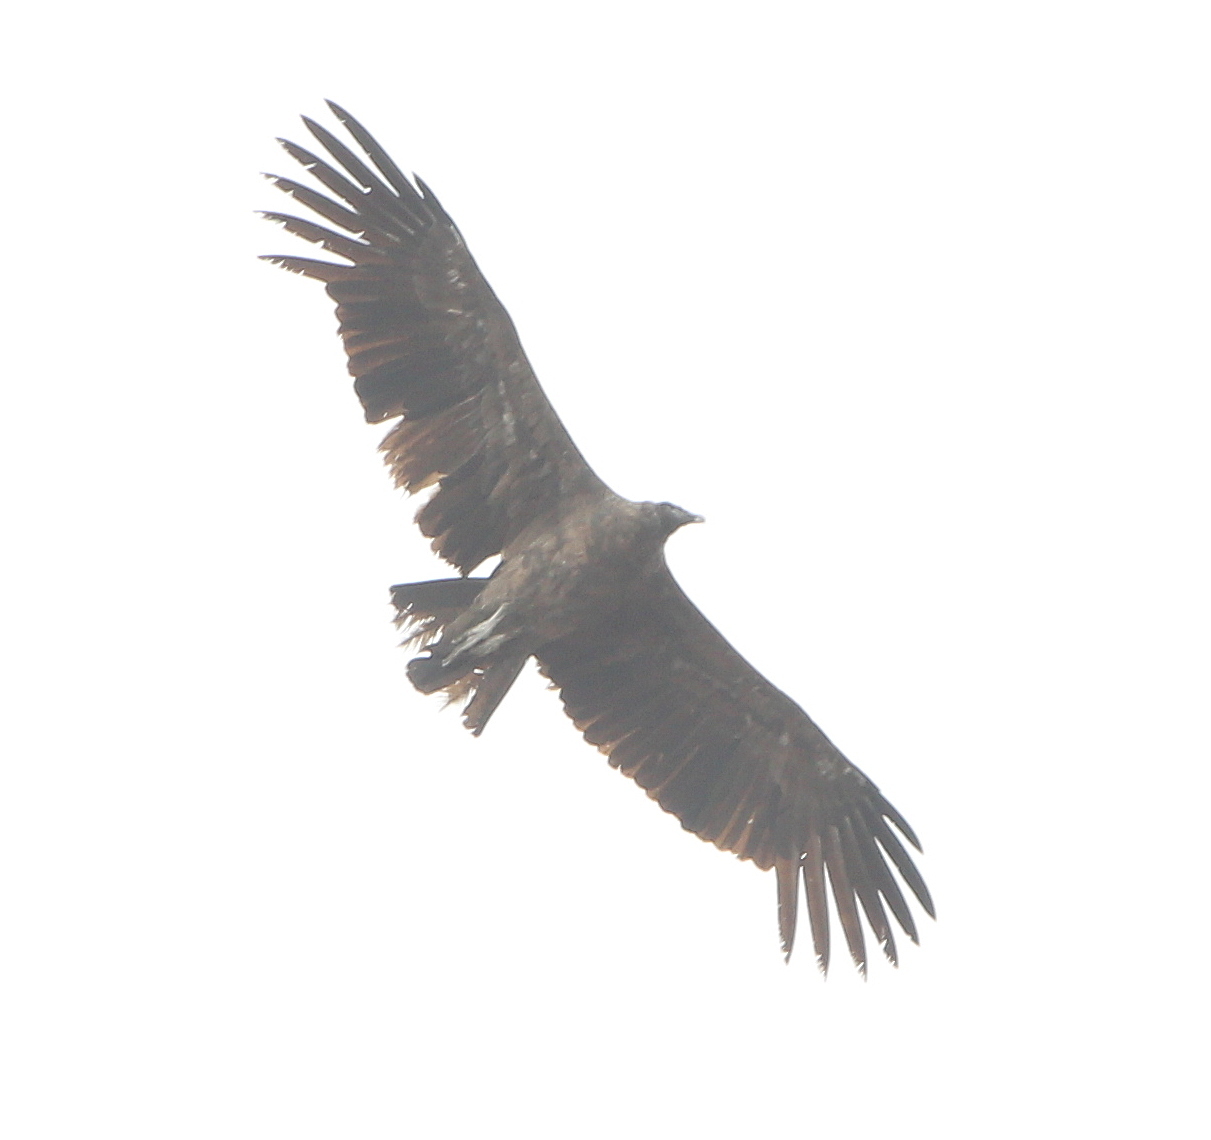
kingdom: Animalia
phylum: Chordata
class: Aves
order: Accipitriformes
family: Cathartidae
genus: Vultur
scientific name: Vultur gryphus
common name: Andean condor
